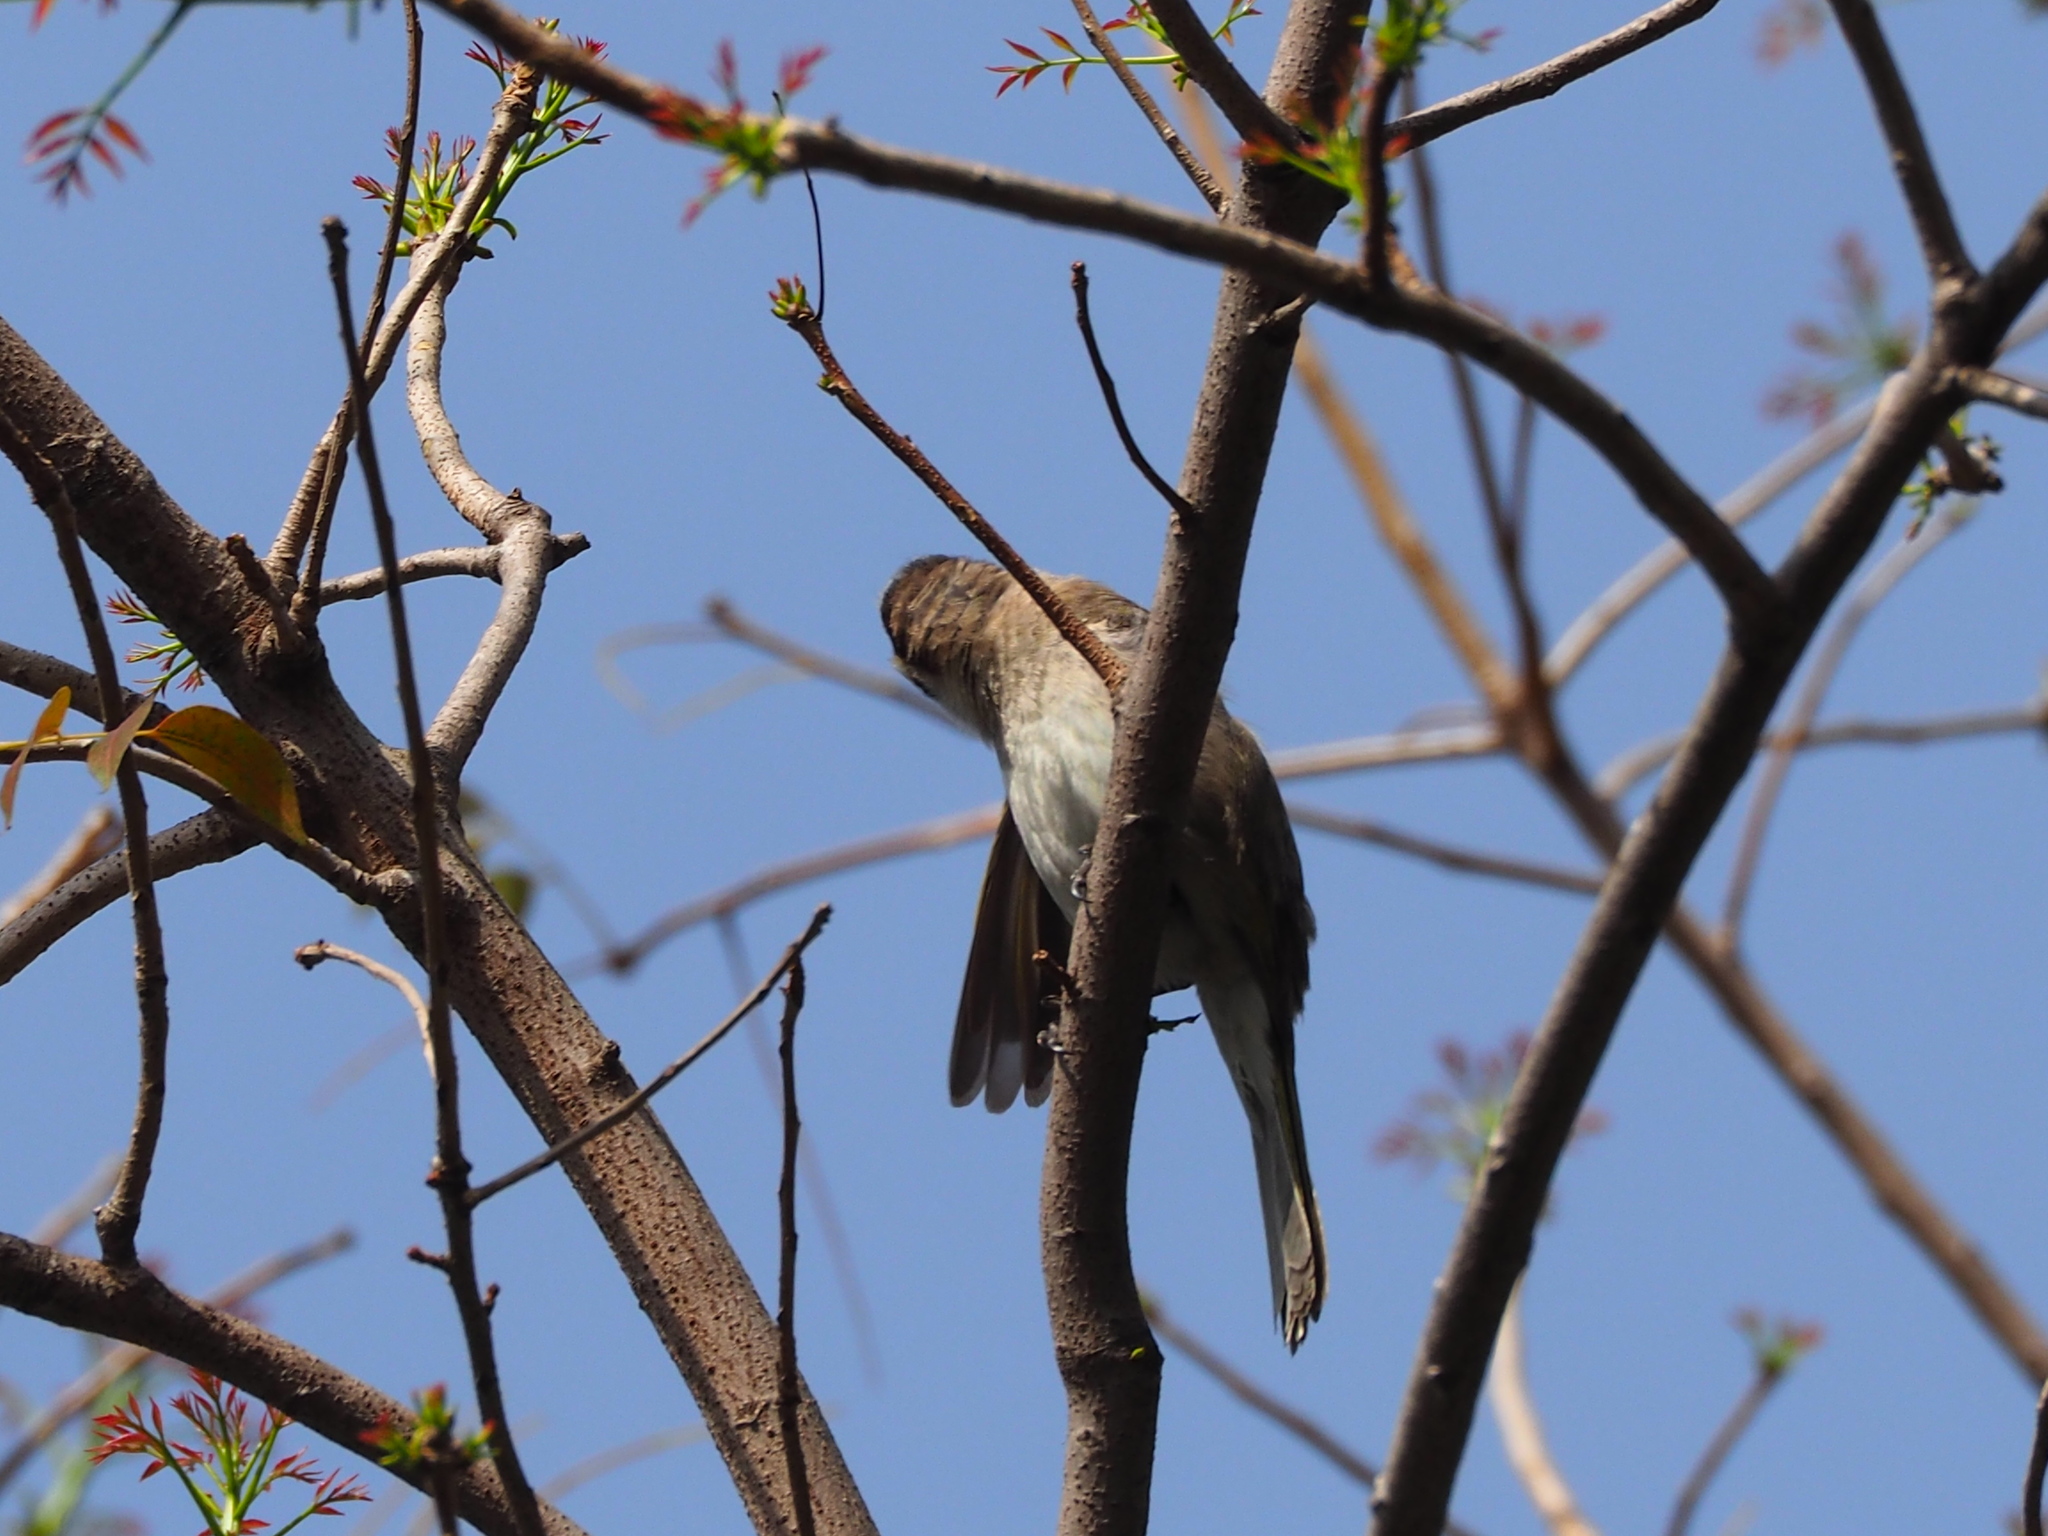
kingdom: Animalia
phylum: Chordata
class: Aves
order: Passeriformes
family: Pycnonotidae
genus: Pycnonotus
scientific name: Pycnonotus sinensis
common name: Light-vented bulbul
